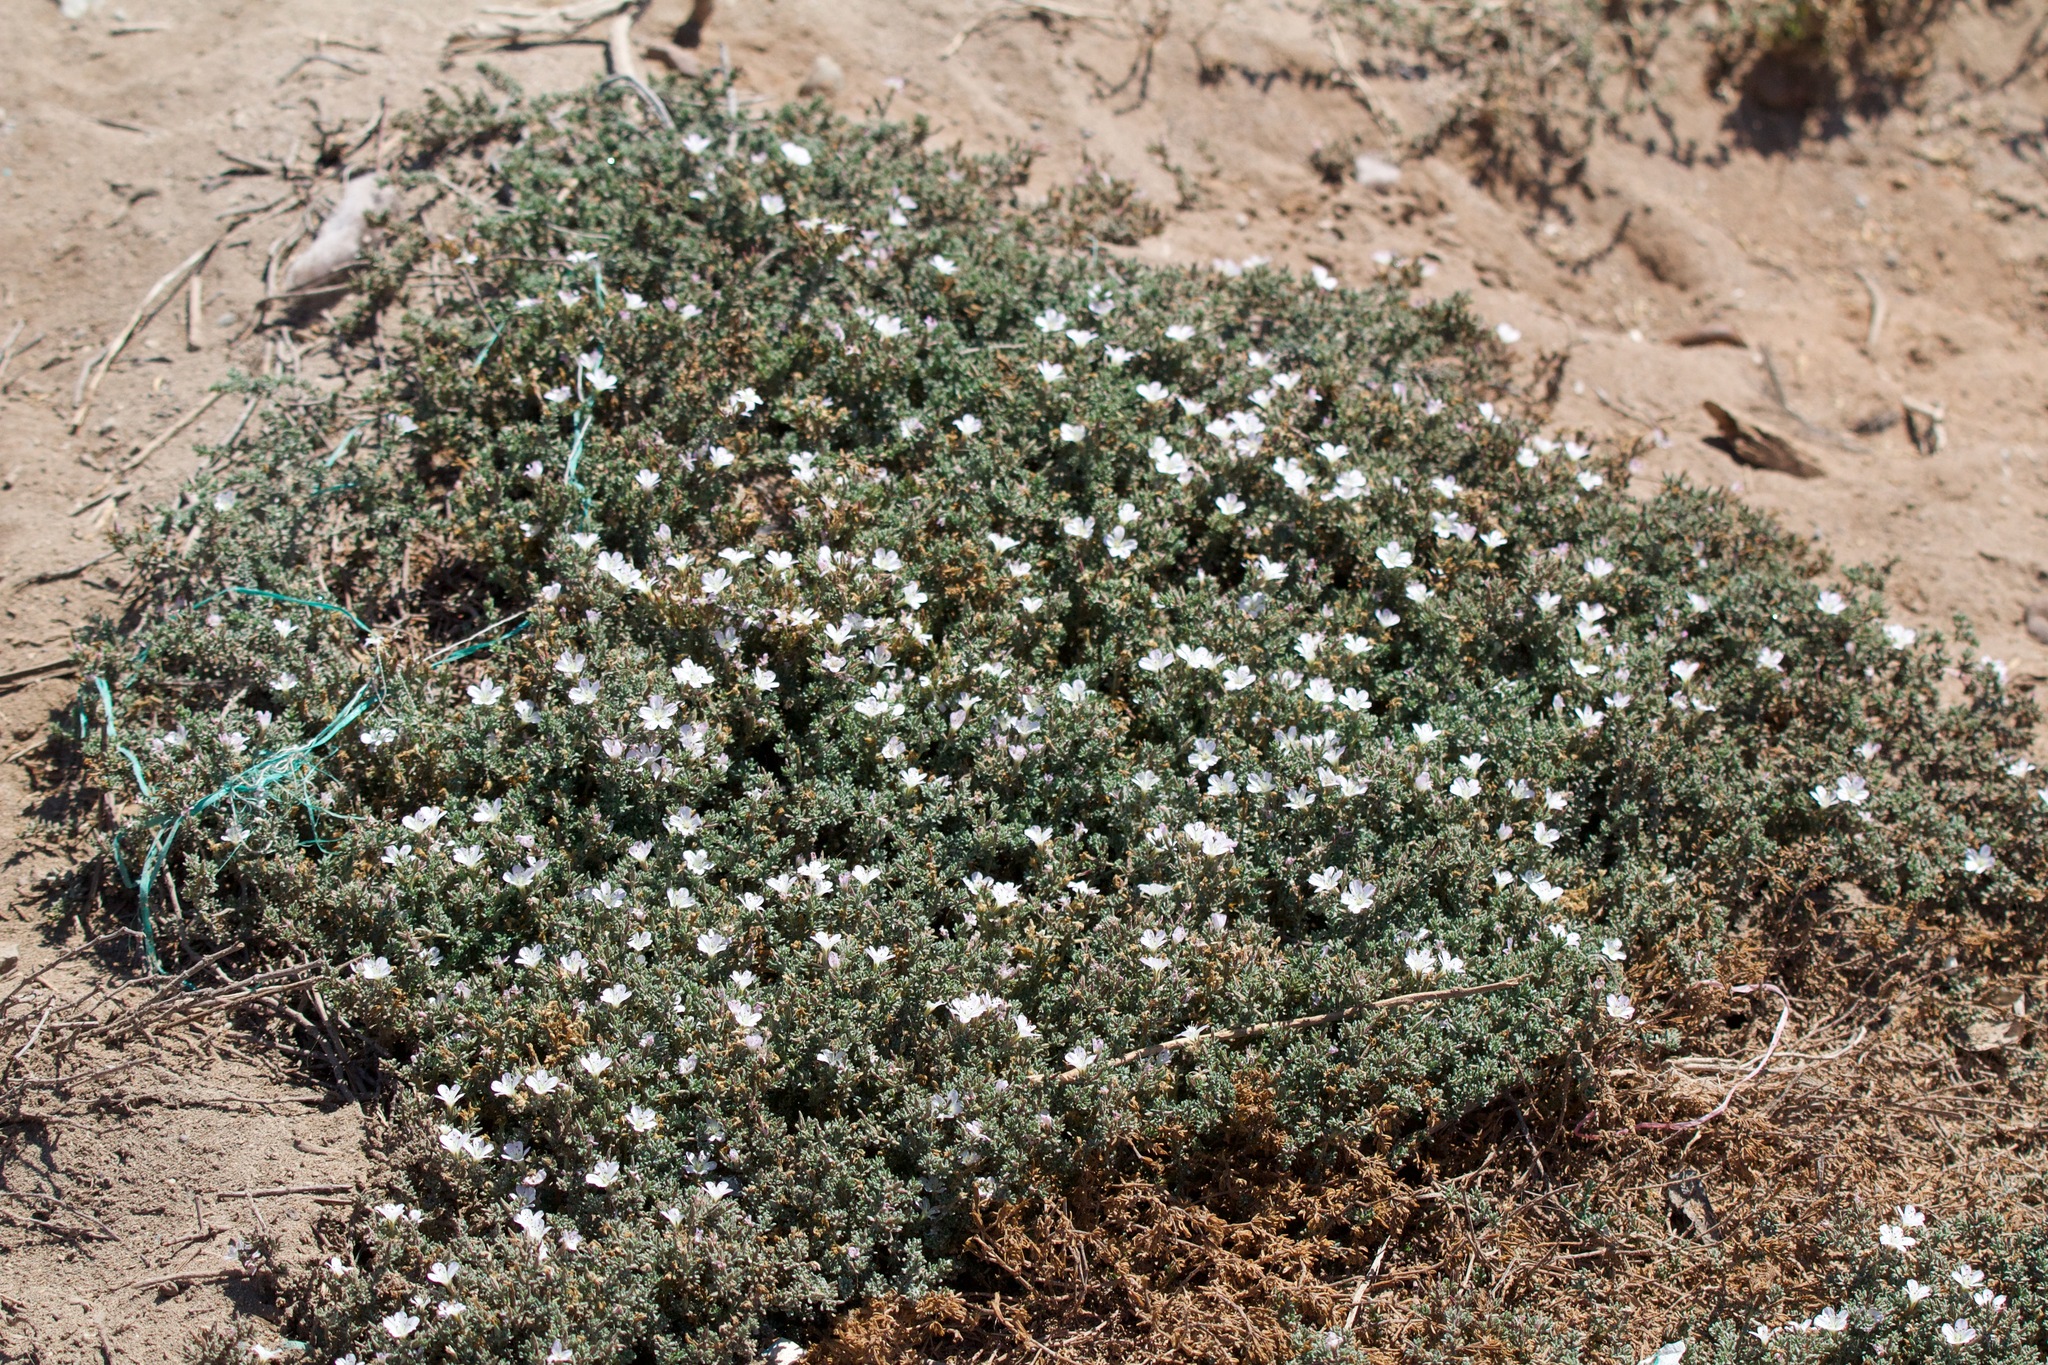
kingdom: Plantae
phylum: Tracheophyta
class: Magnoliopsida
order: Caryophyllales
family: Frankeniaceae
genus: Frankenia
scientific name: Frankenia chilensis
